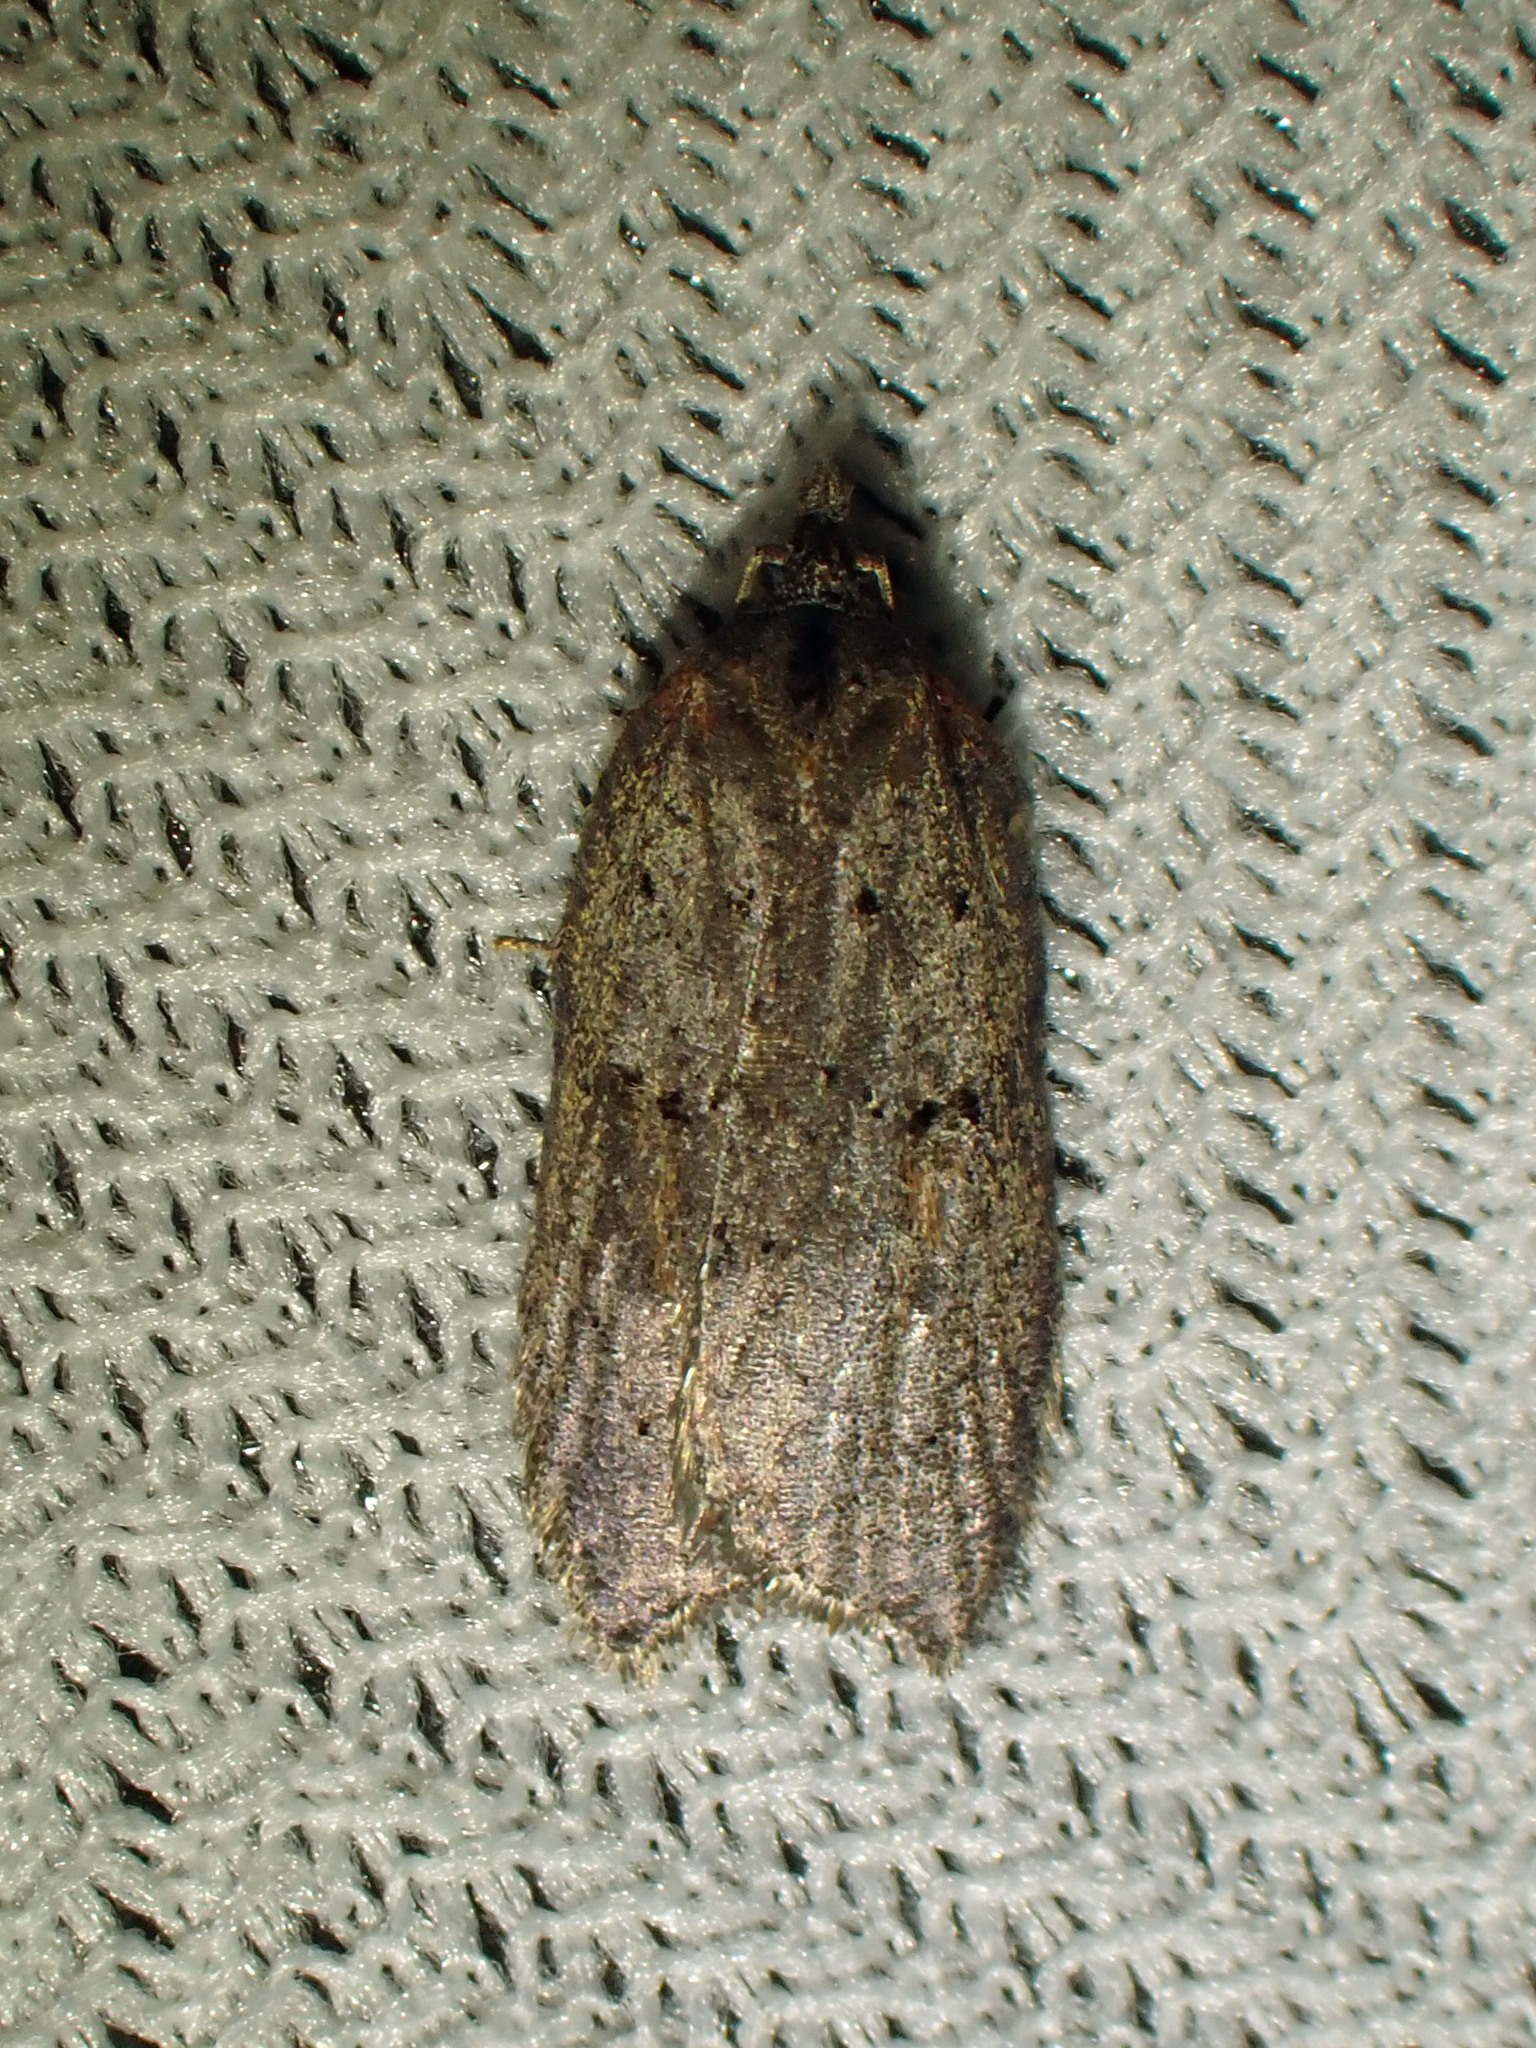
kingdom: Animalia
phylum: Arthropoda
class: Insecta
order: Lepidoptera
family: Tortricidae
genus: Acleris
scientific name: Acleris caliginosana
